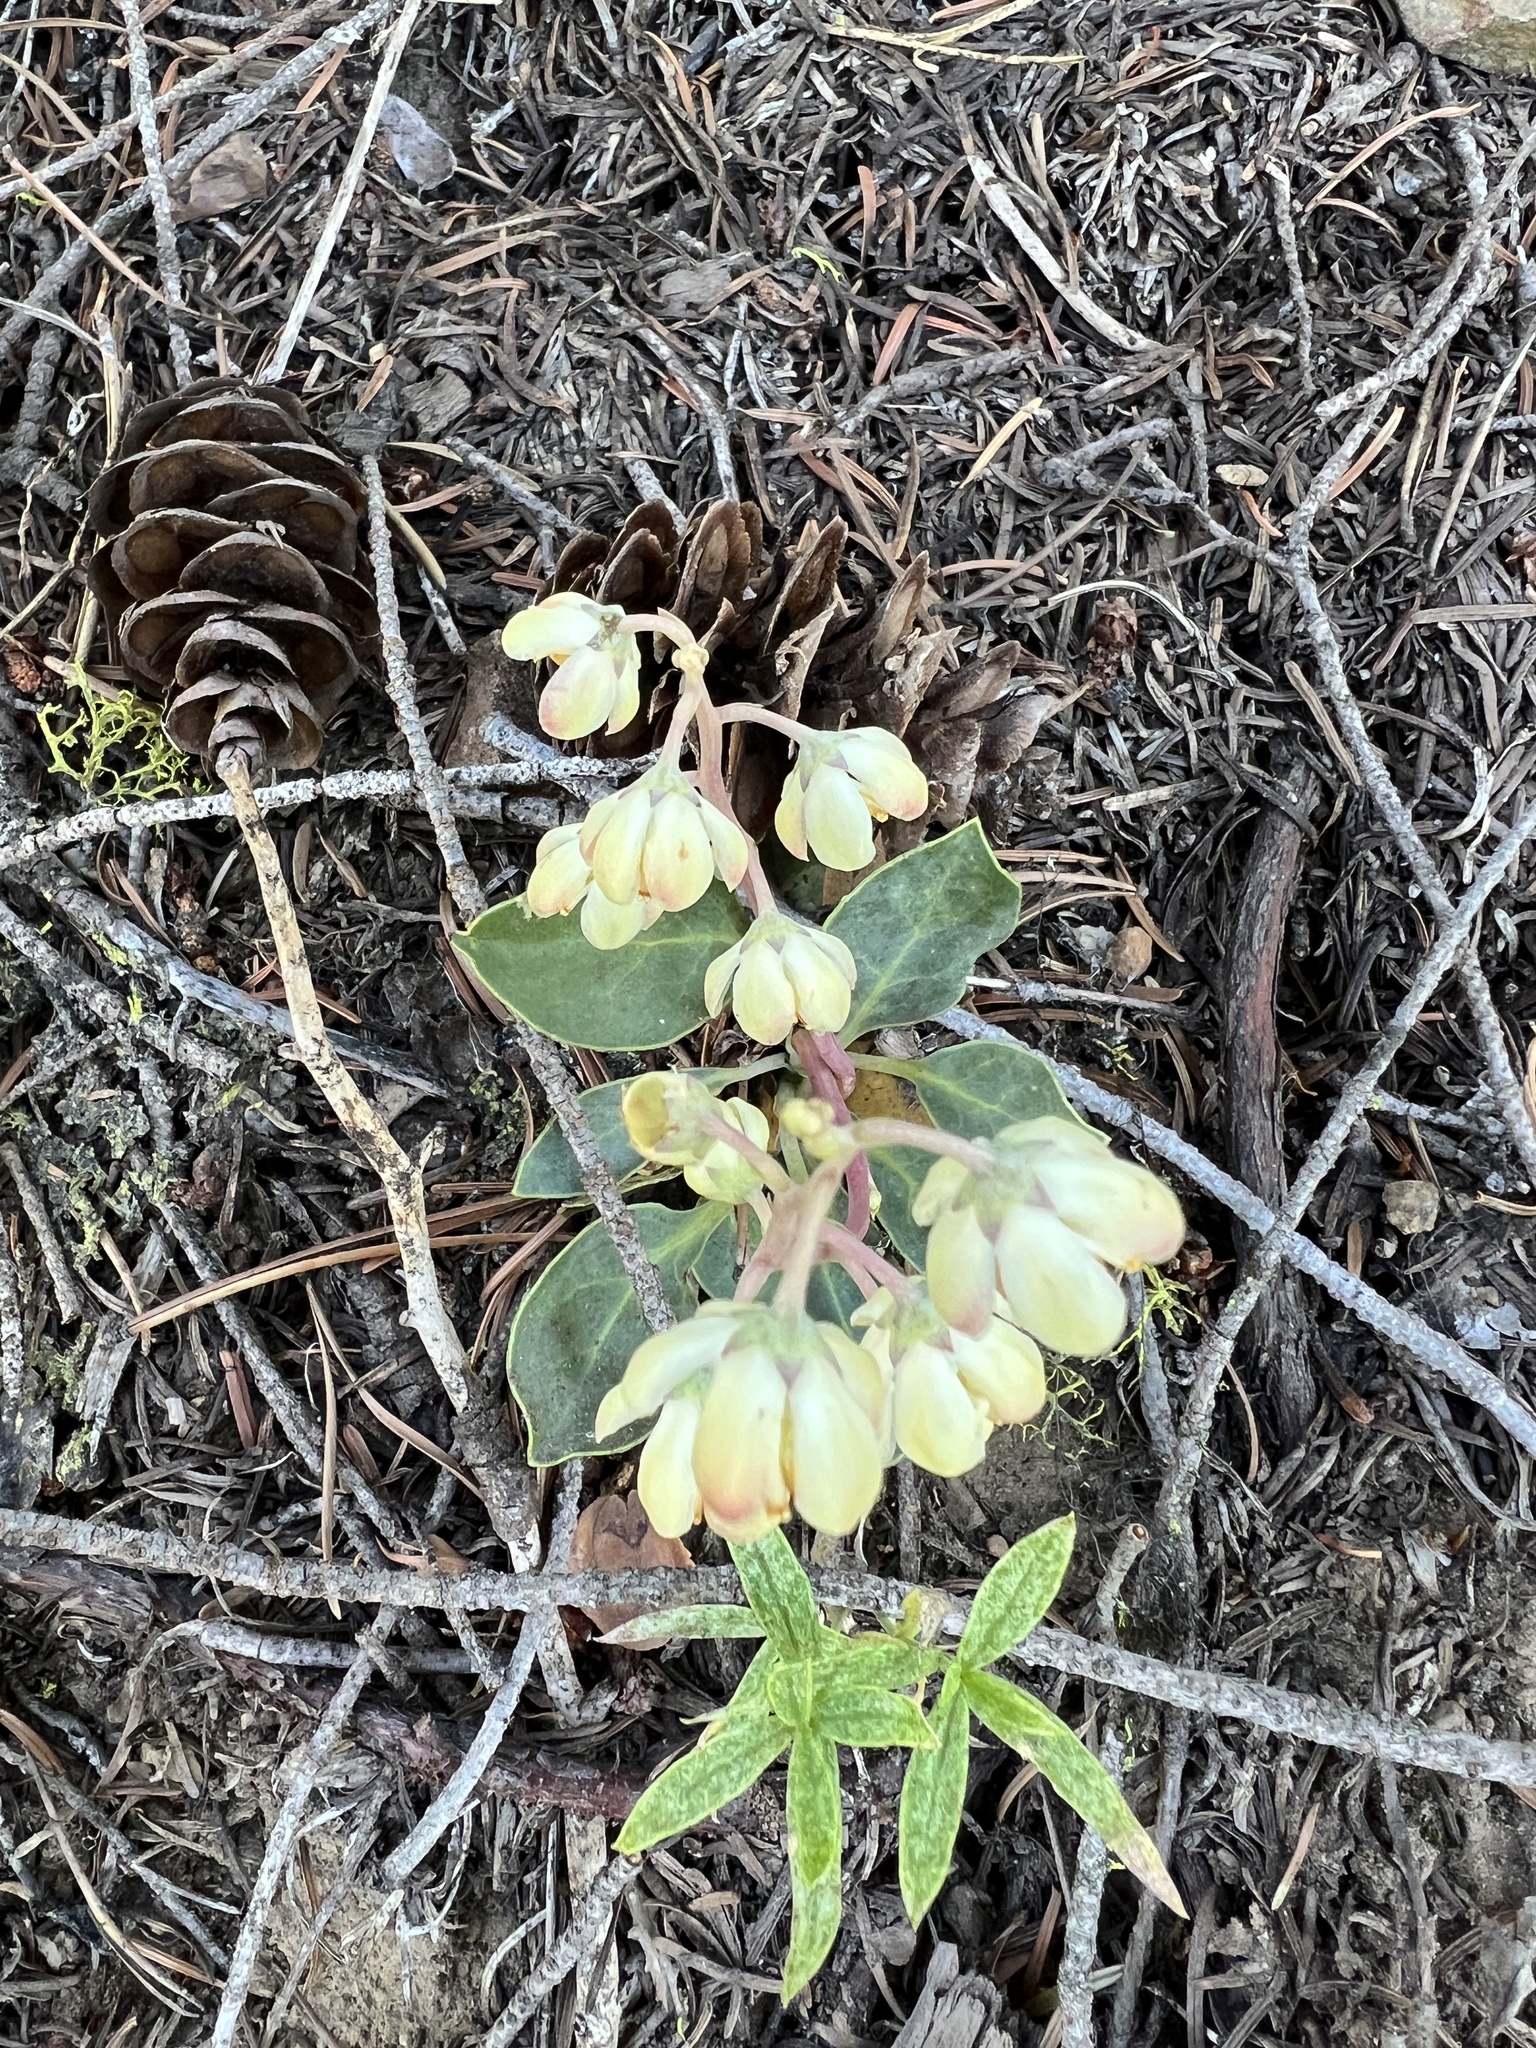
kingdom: Plantae
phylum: Tracheophyta
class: Magnoliopsida
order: Ericales
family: Ericaceae
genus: Pyrola
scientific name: Pyrola dentata
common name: Tooth-leaved wintergreen
